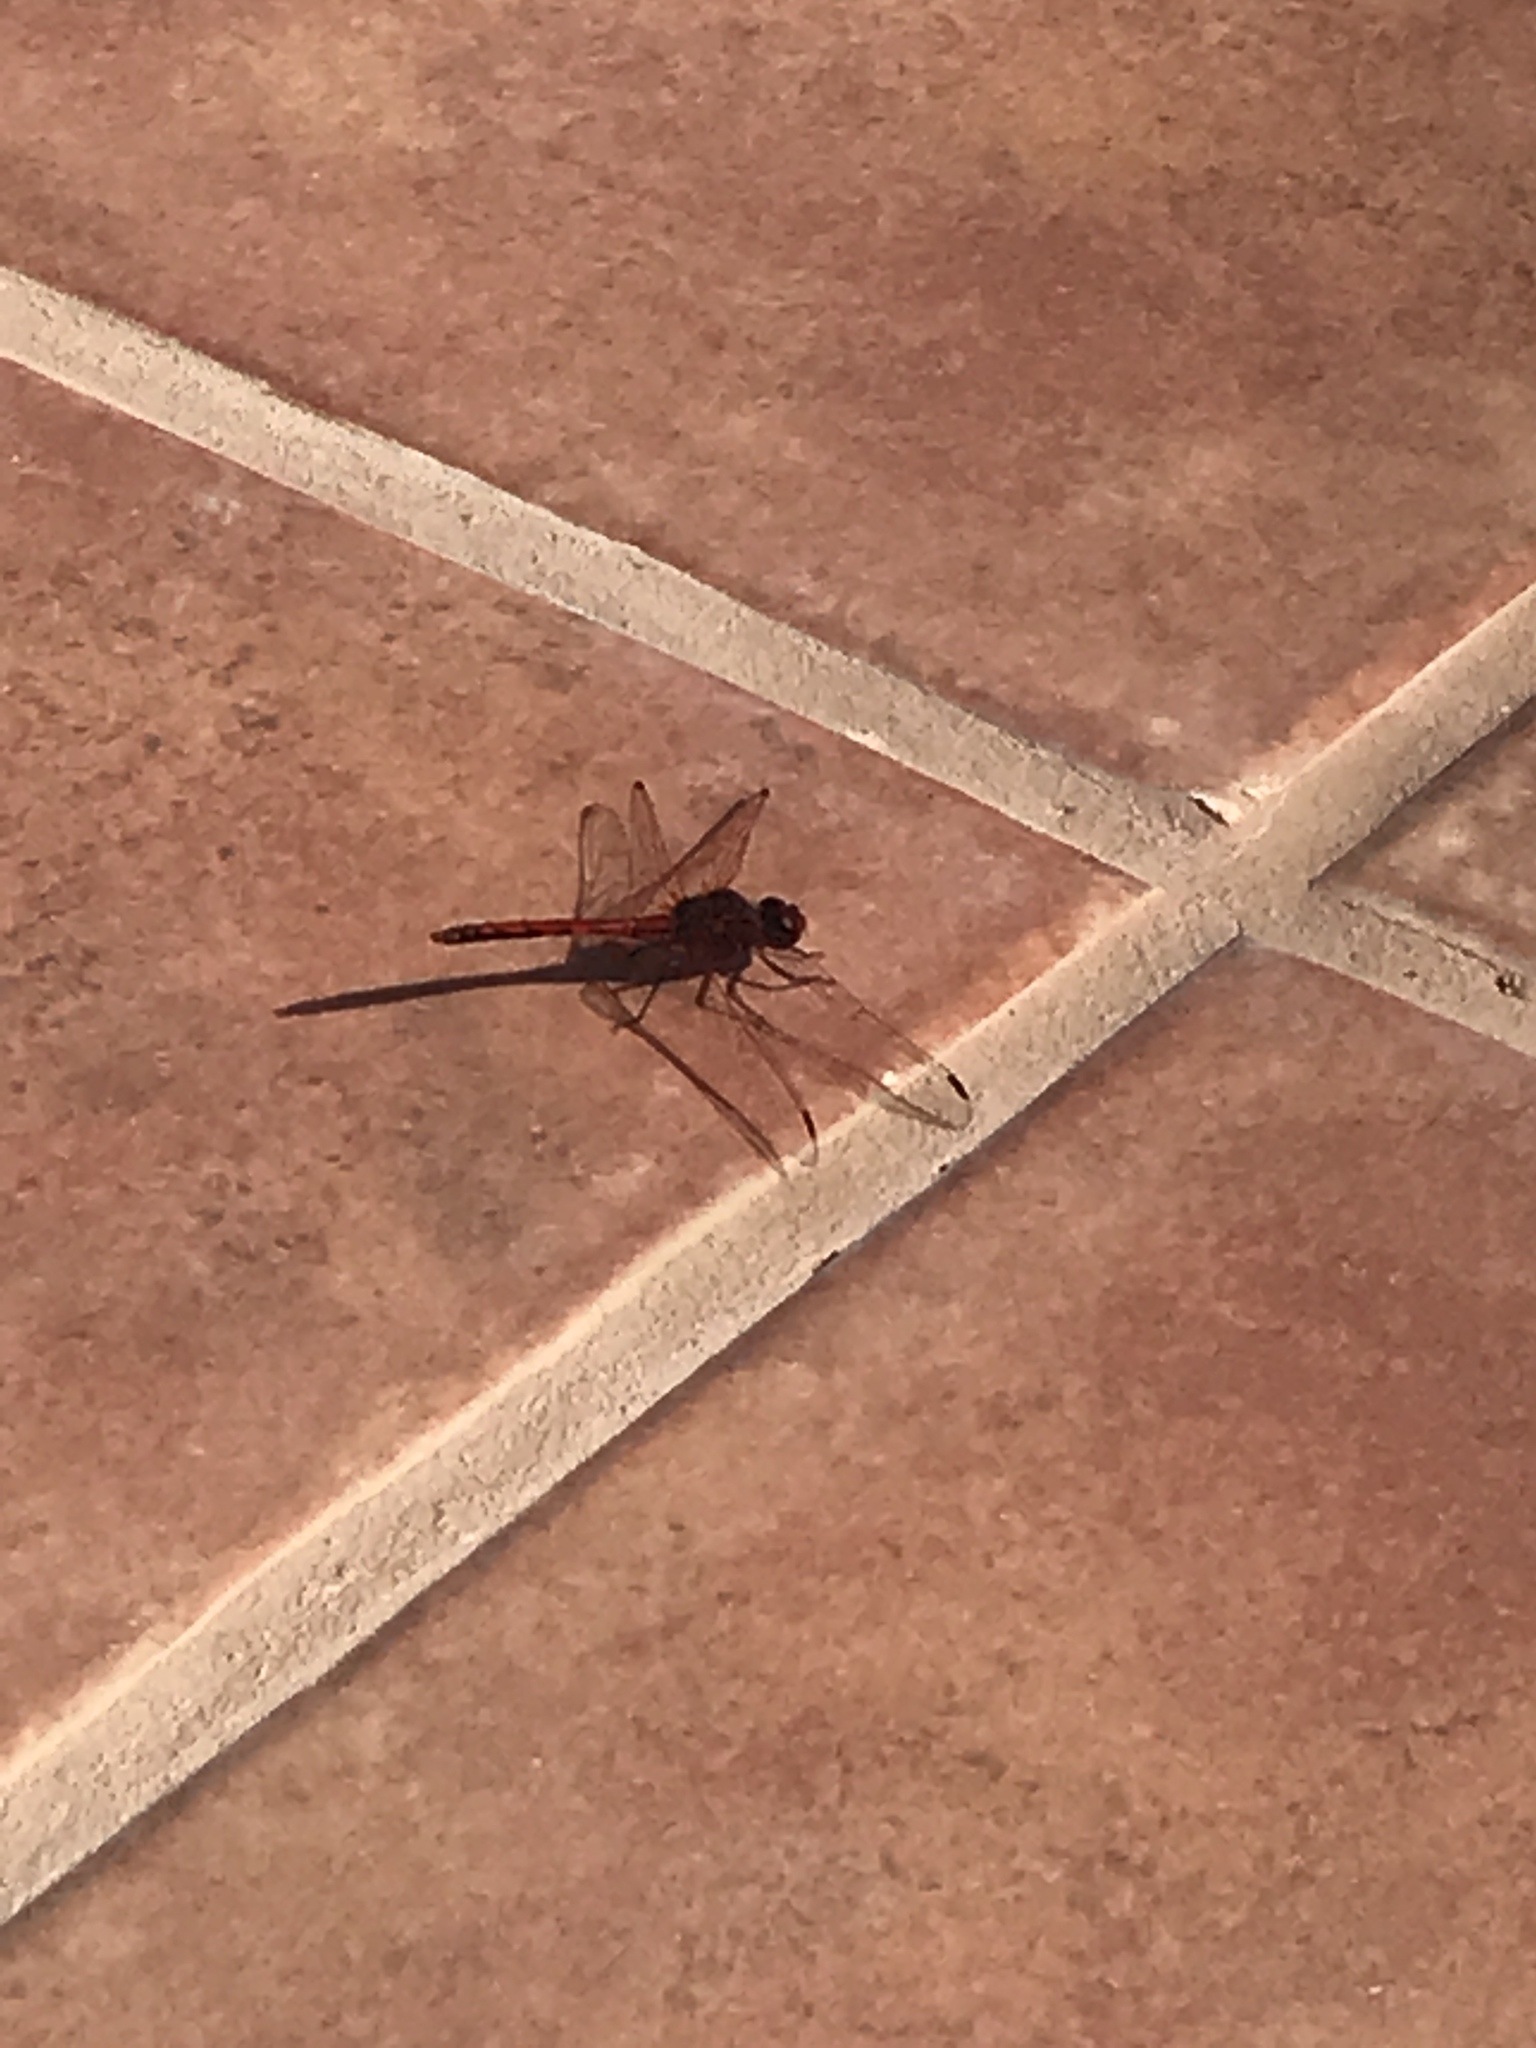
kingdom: Animalia
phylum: Arthropoda
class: Insecta
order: Odonata
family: Libellulidae
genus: Trithemis
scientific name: Trithemis arteriosa
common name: Red-veined dropwing
